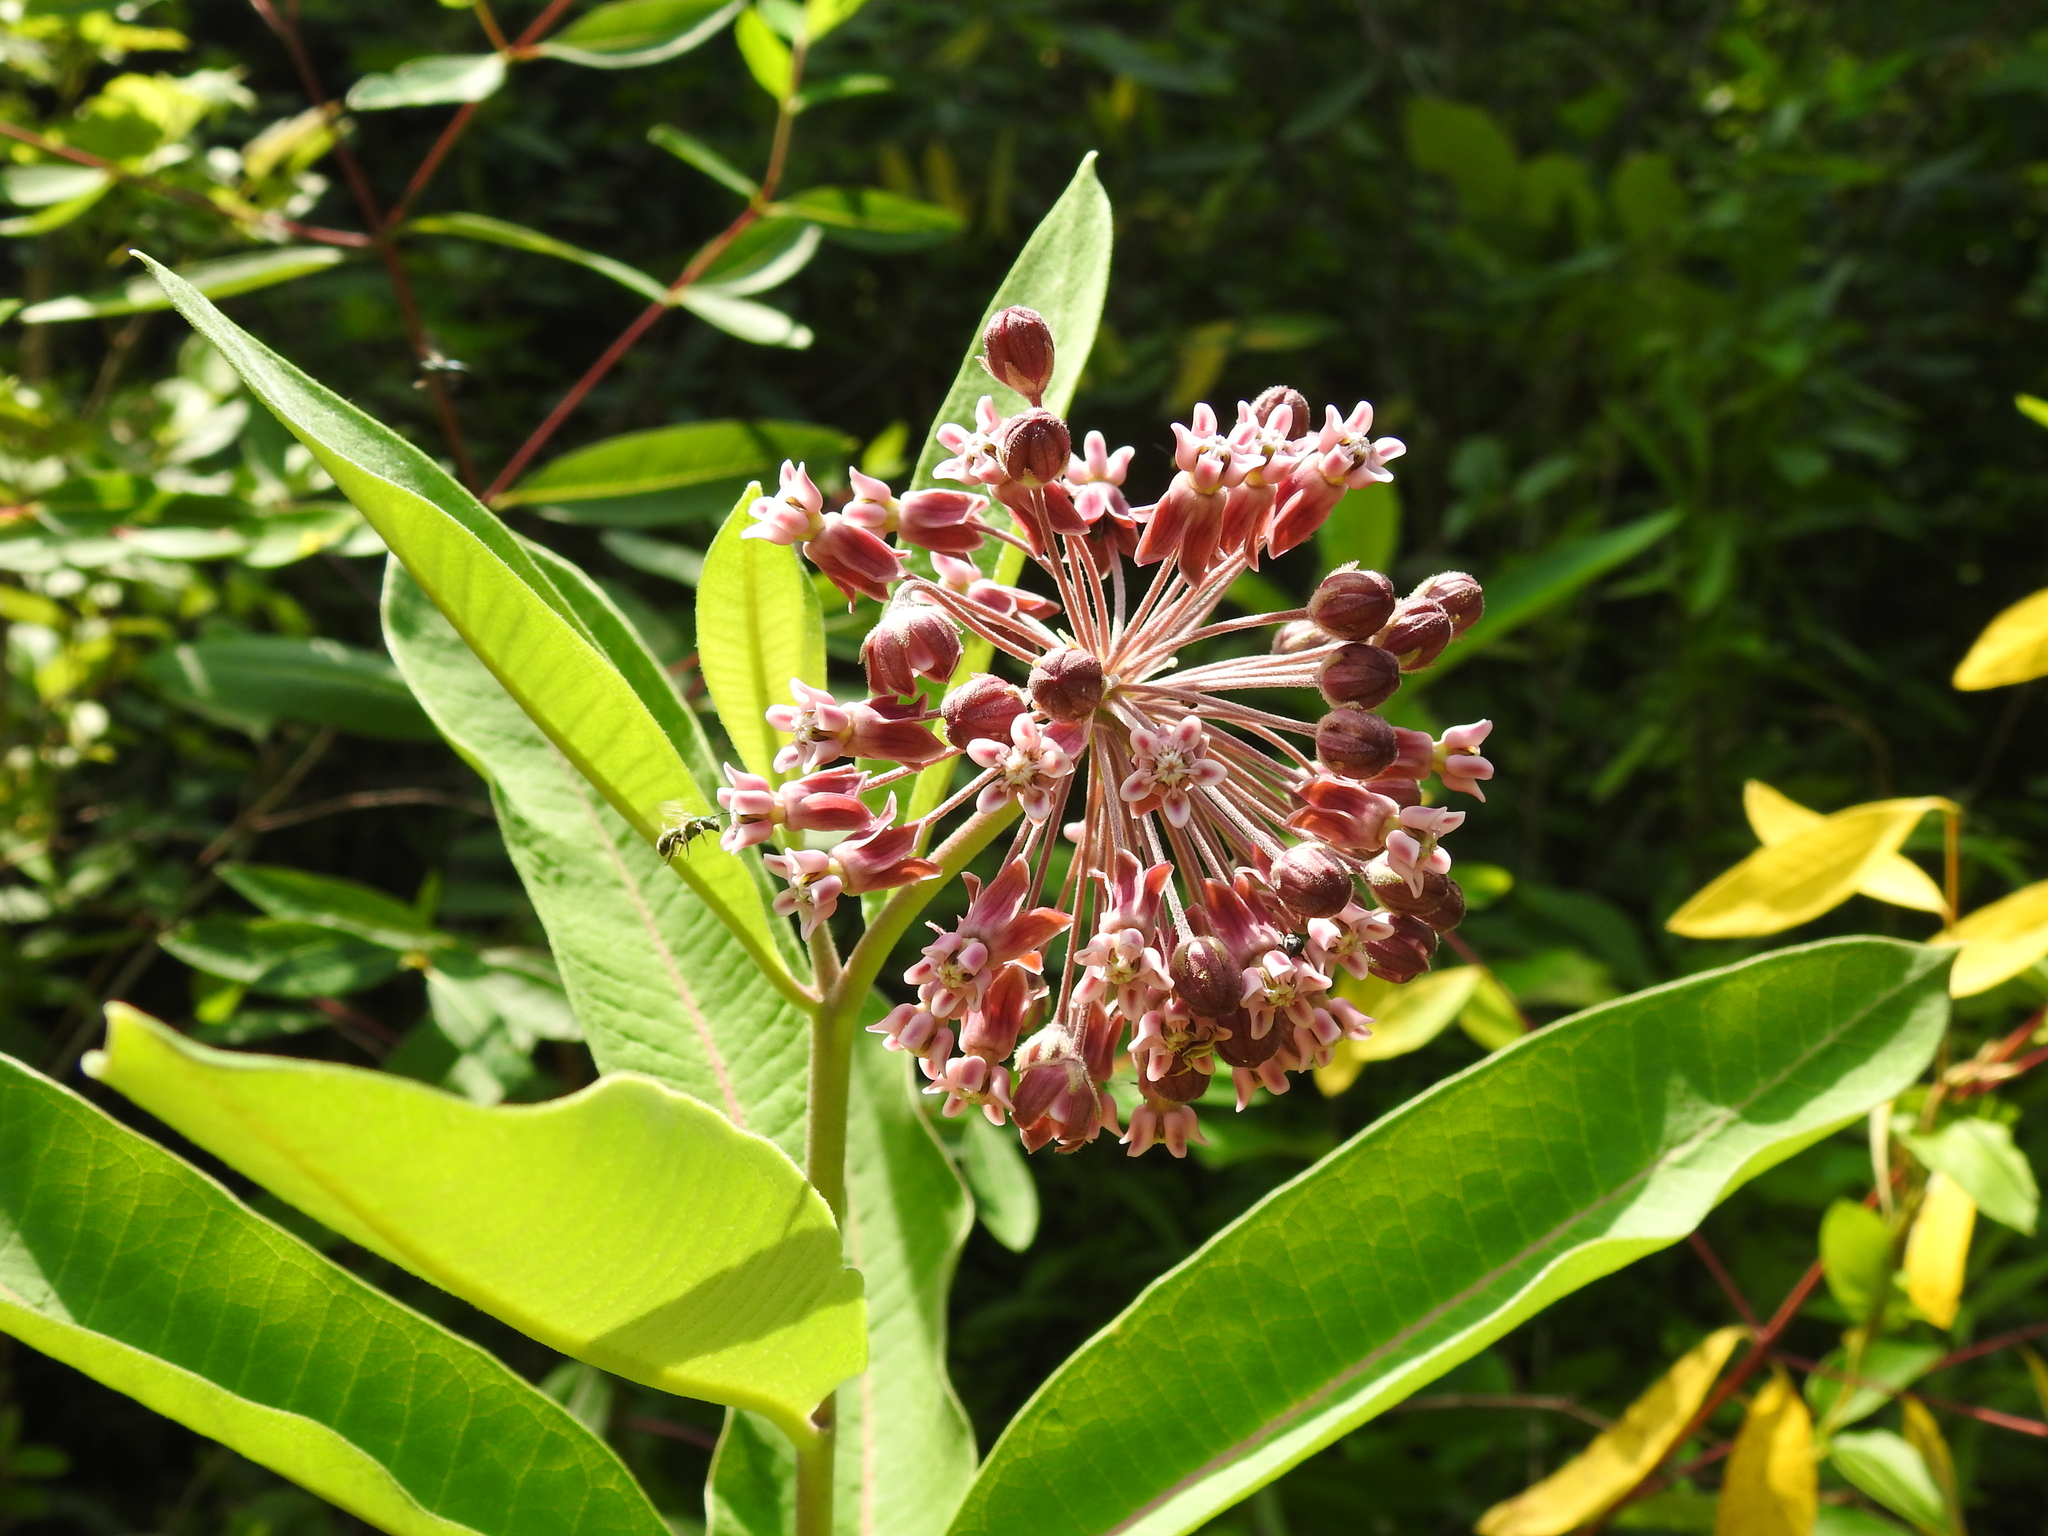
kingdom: Plantae
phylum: Tracheophyta
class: Magnoliopsida
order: Gentianales
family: Apocynaceae
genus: Asclepias
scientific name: Asclepias syriaca
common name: Common milkweed
